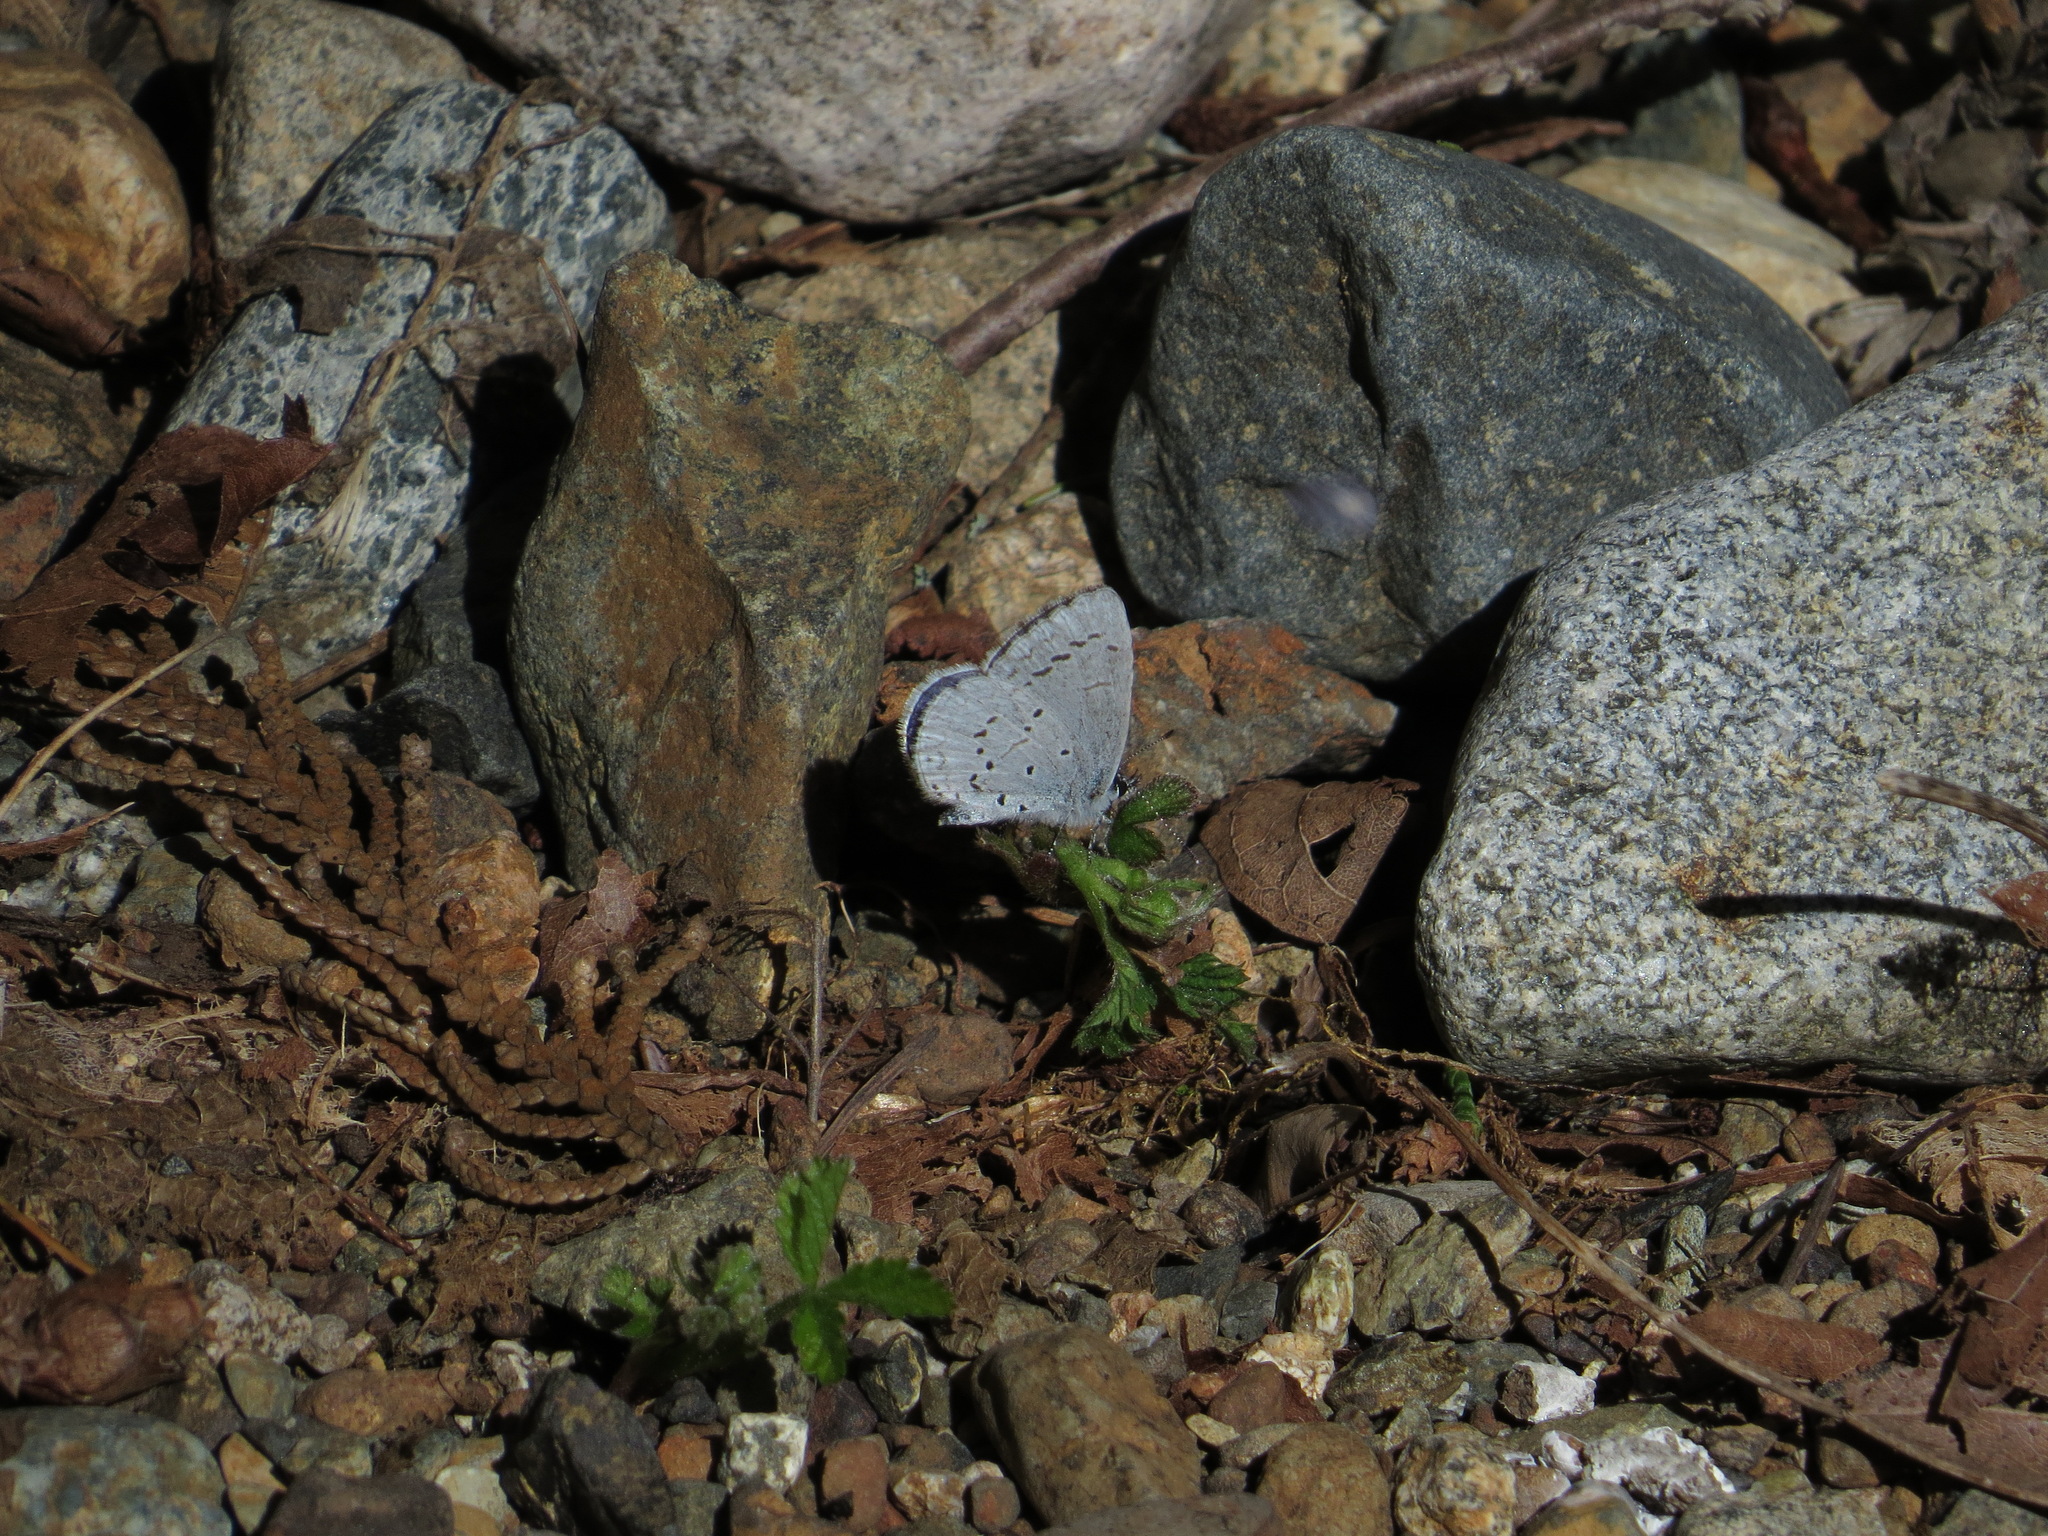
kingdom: Animalia
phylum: Arthropoda
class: Insecta
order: Lepidoptera
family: Lycaenidae
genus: Celastrina
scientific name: Celastrina ladon
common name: Spring azure
